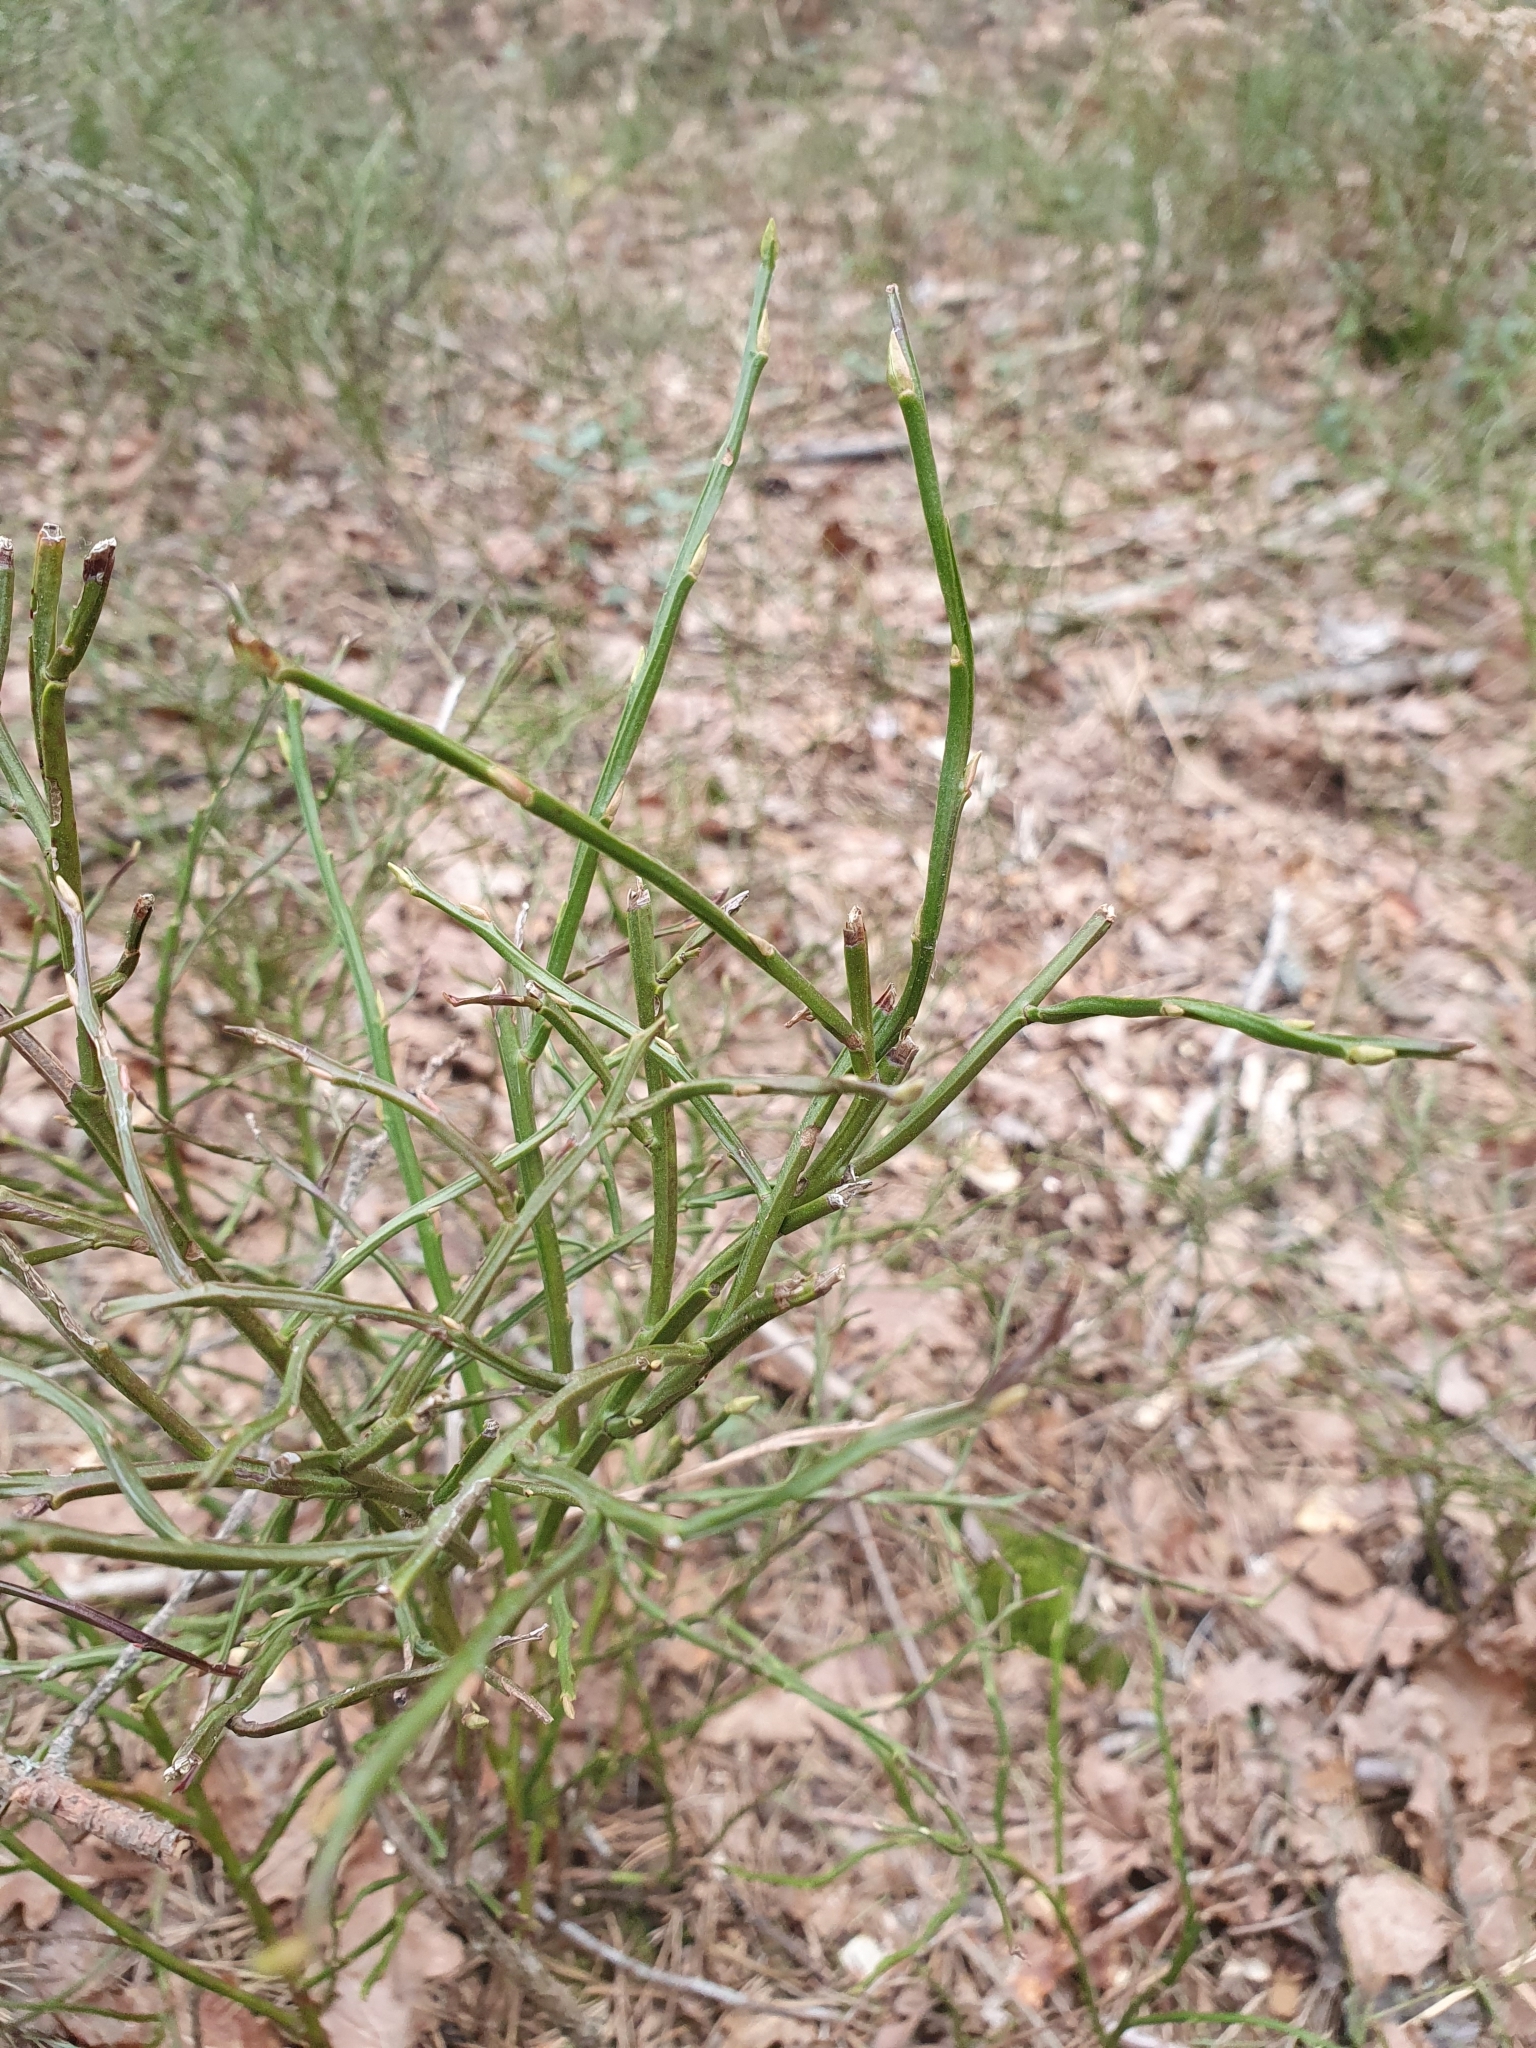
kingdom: Plantae
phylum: Tracheophyta
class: Magnoliopsida
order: Ericales
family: Ericaceae
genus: Vaccinium
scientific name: Vaccinium myrtillus
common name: Bilberry
